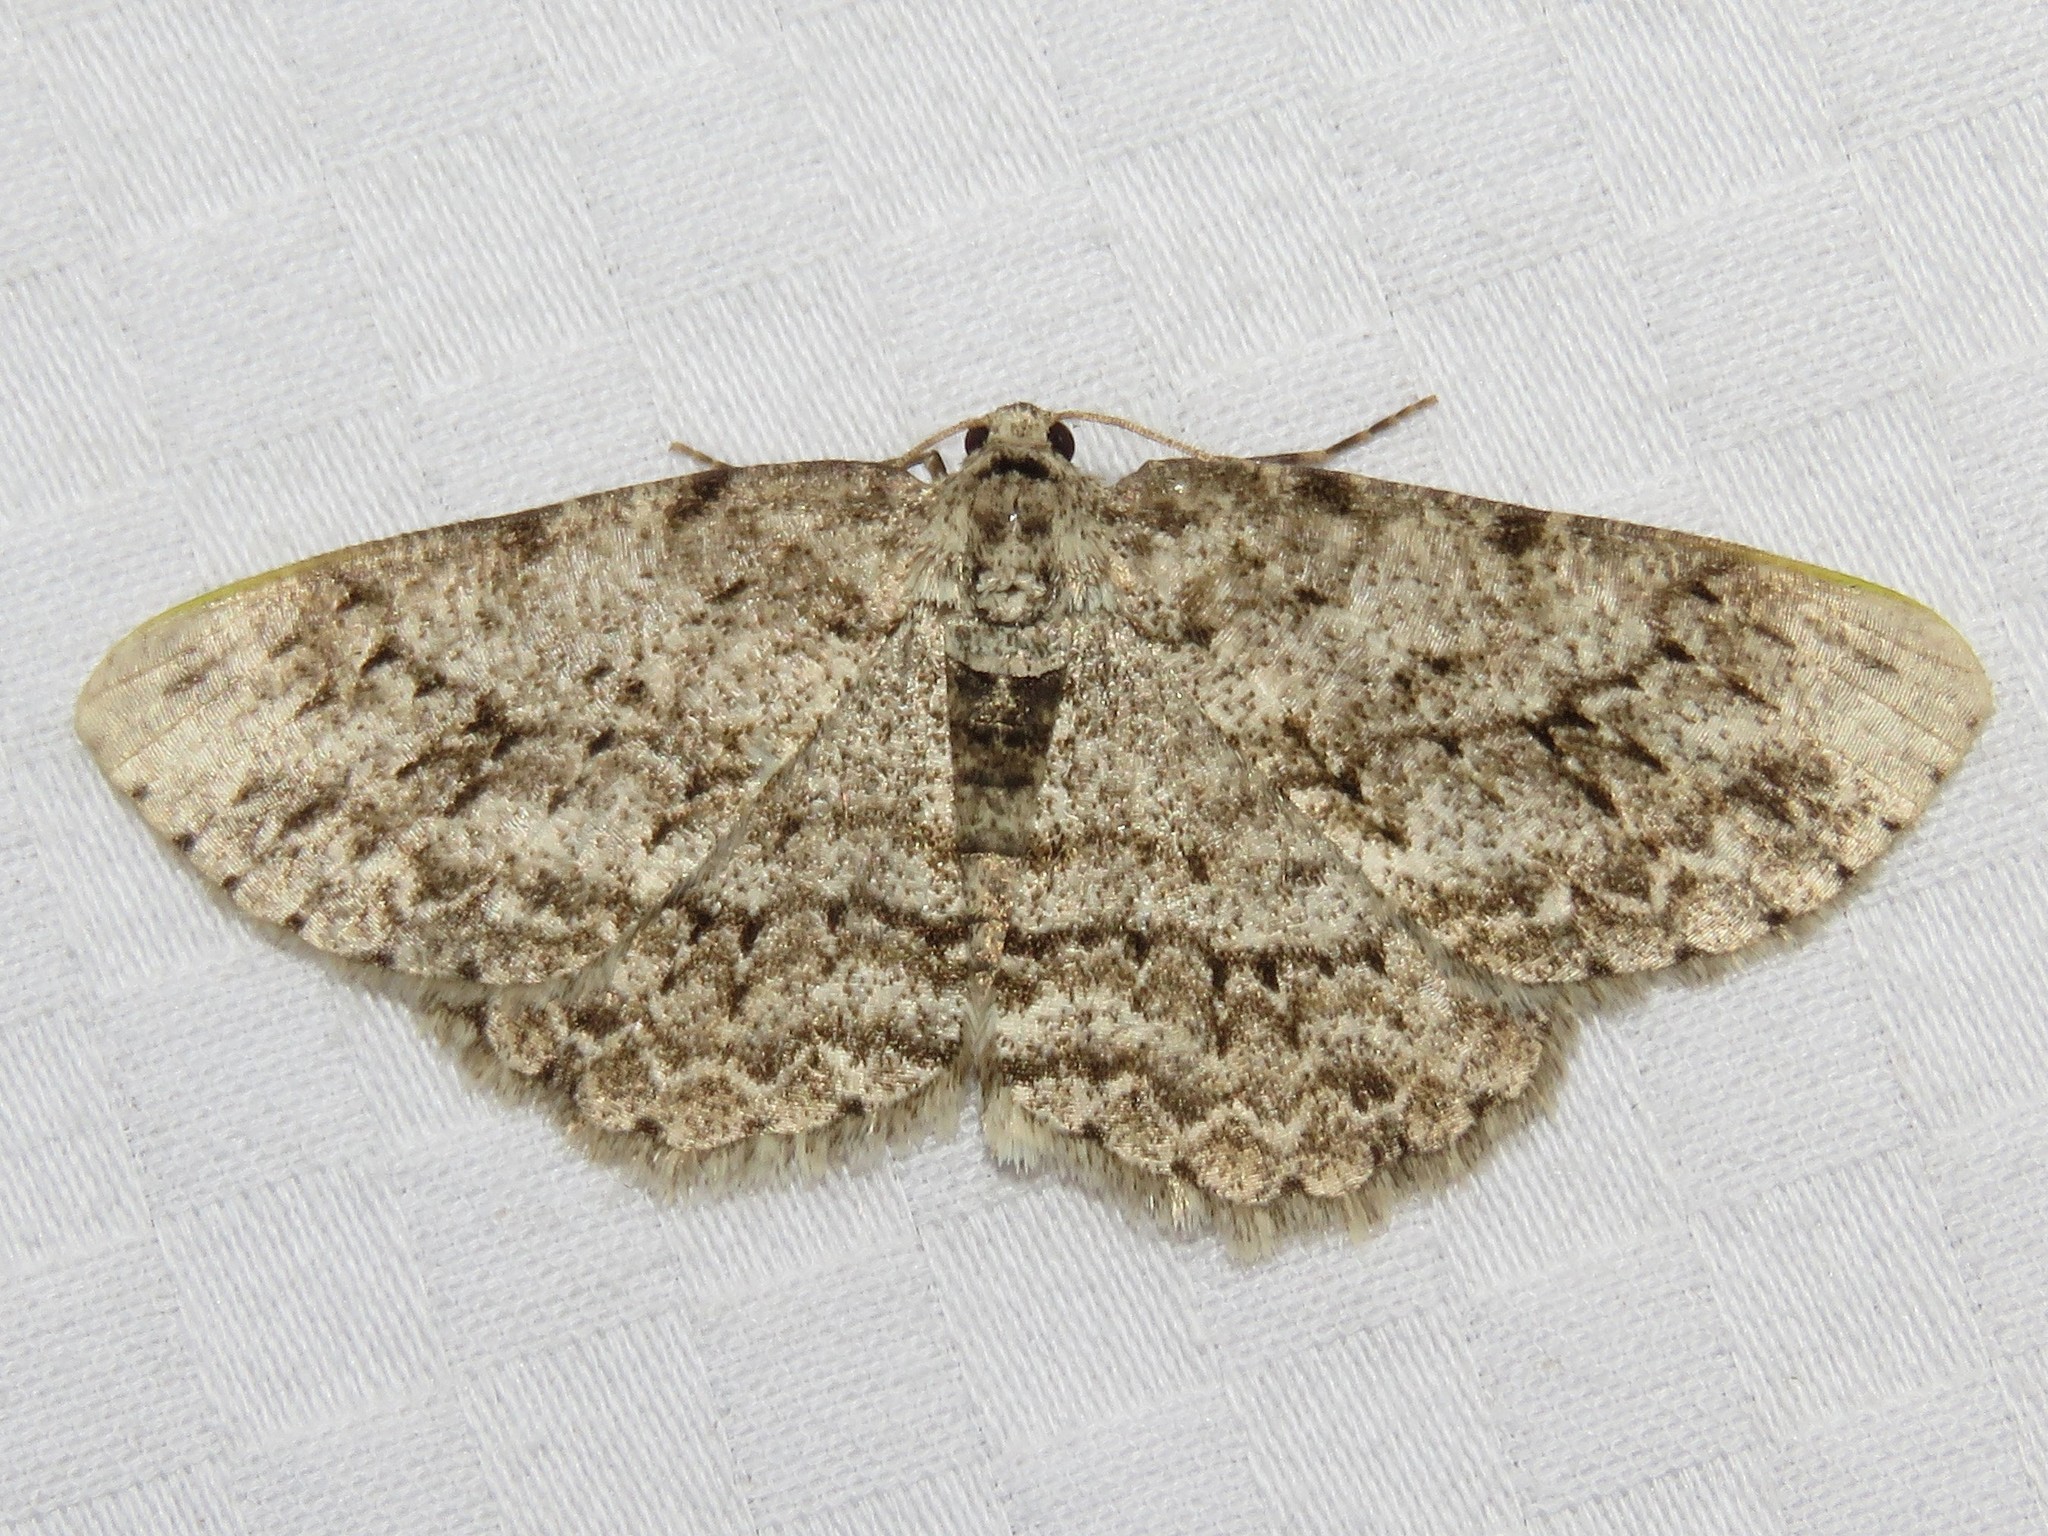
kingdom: Animalia
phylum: Arthropoda
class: Insecta
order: Lepidoptera
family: Geometridae
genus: Ectropis
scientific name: Ectropis crepuscularia
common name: Engrailed
